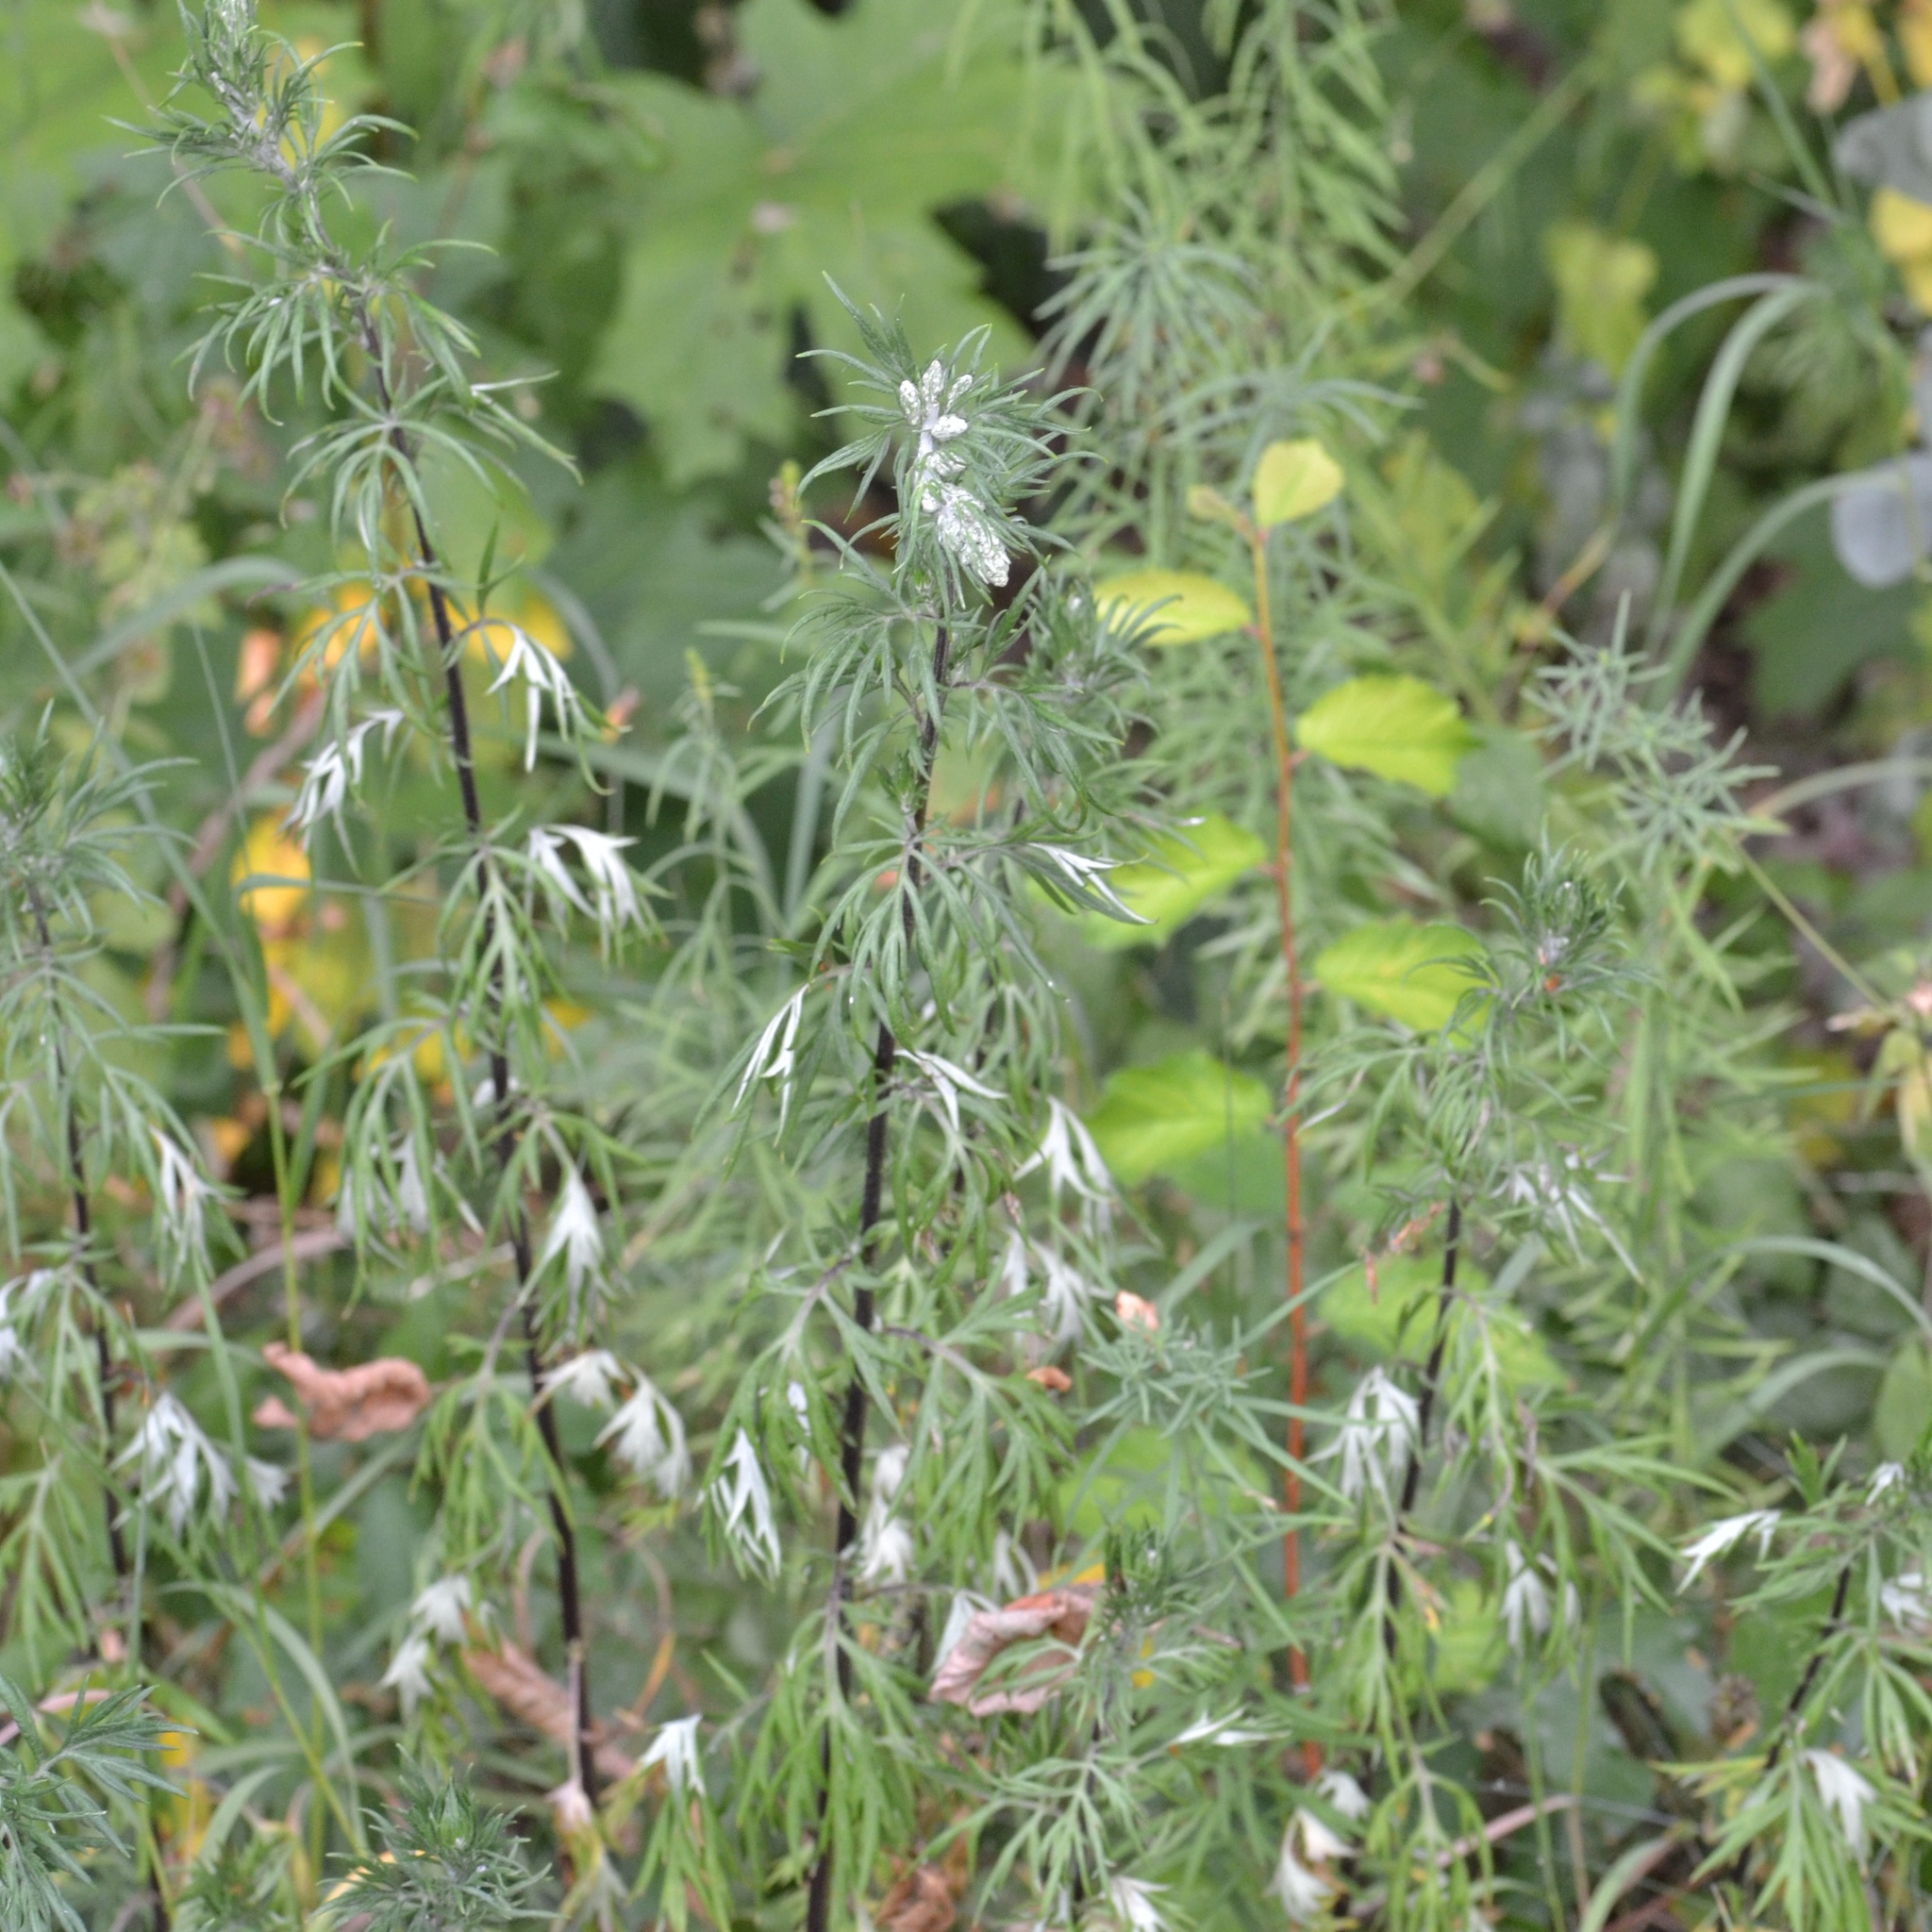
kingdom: Plantae
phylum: Tracheophyta
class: Magnoliopsida
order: Asterales
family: Asteraceae
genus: Artemisia
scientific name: Artemisia vulgaris
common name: Mugwort
